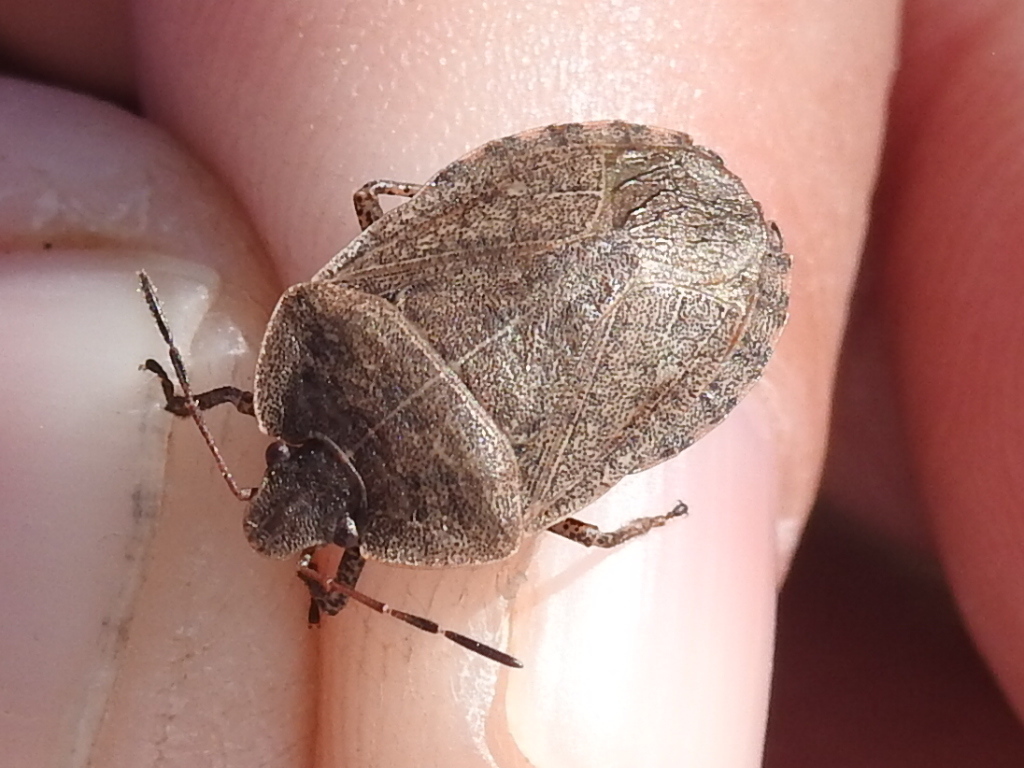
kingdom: Animalia
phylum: Arthropoda
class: Insecta
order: Hemiptera
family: Pentatomidae
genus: Menecles
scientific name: Menecles insertus
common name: Elf shoe stink bug
